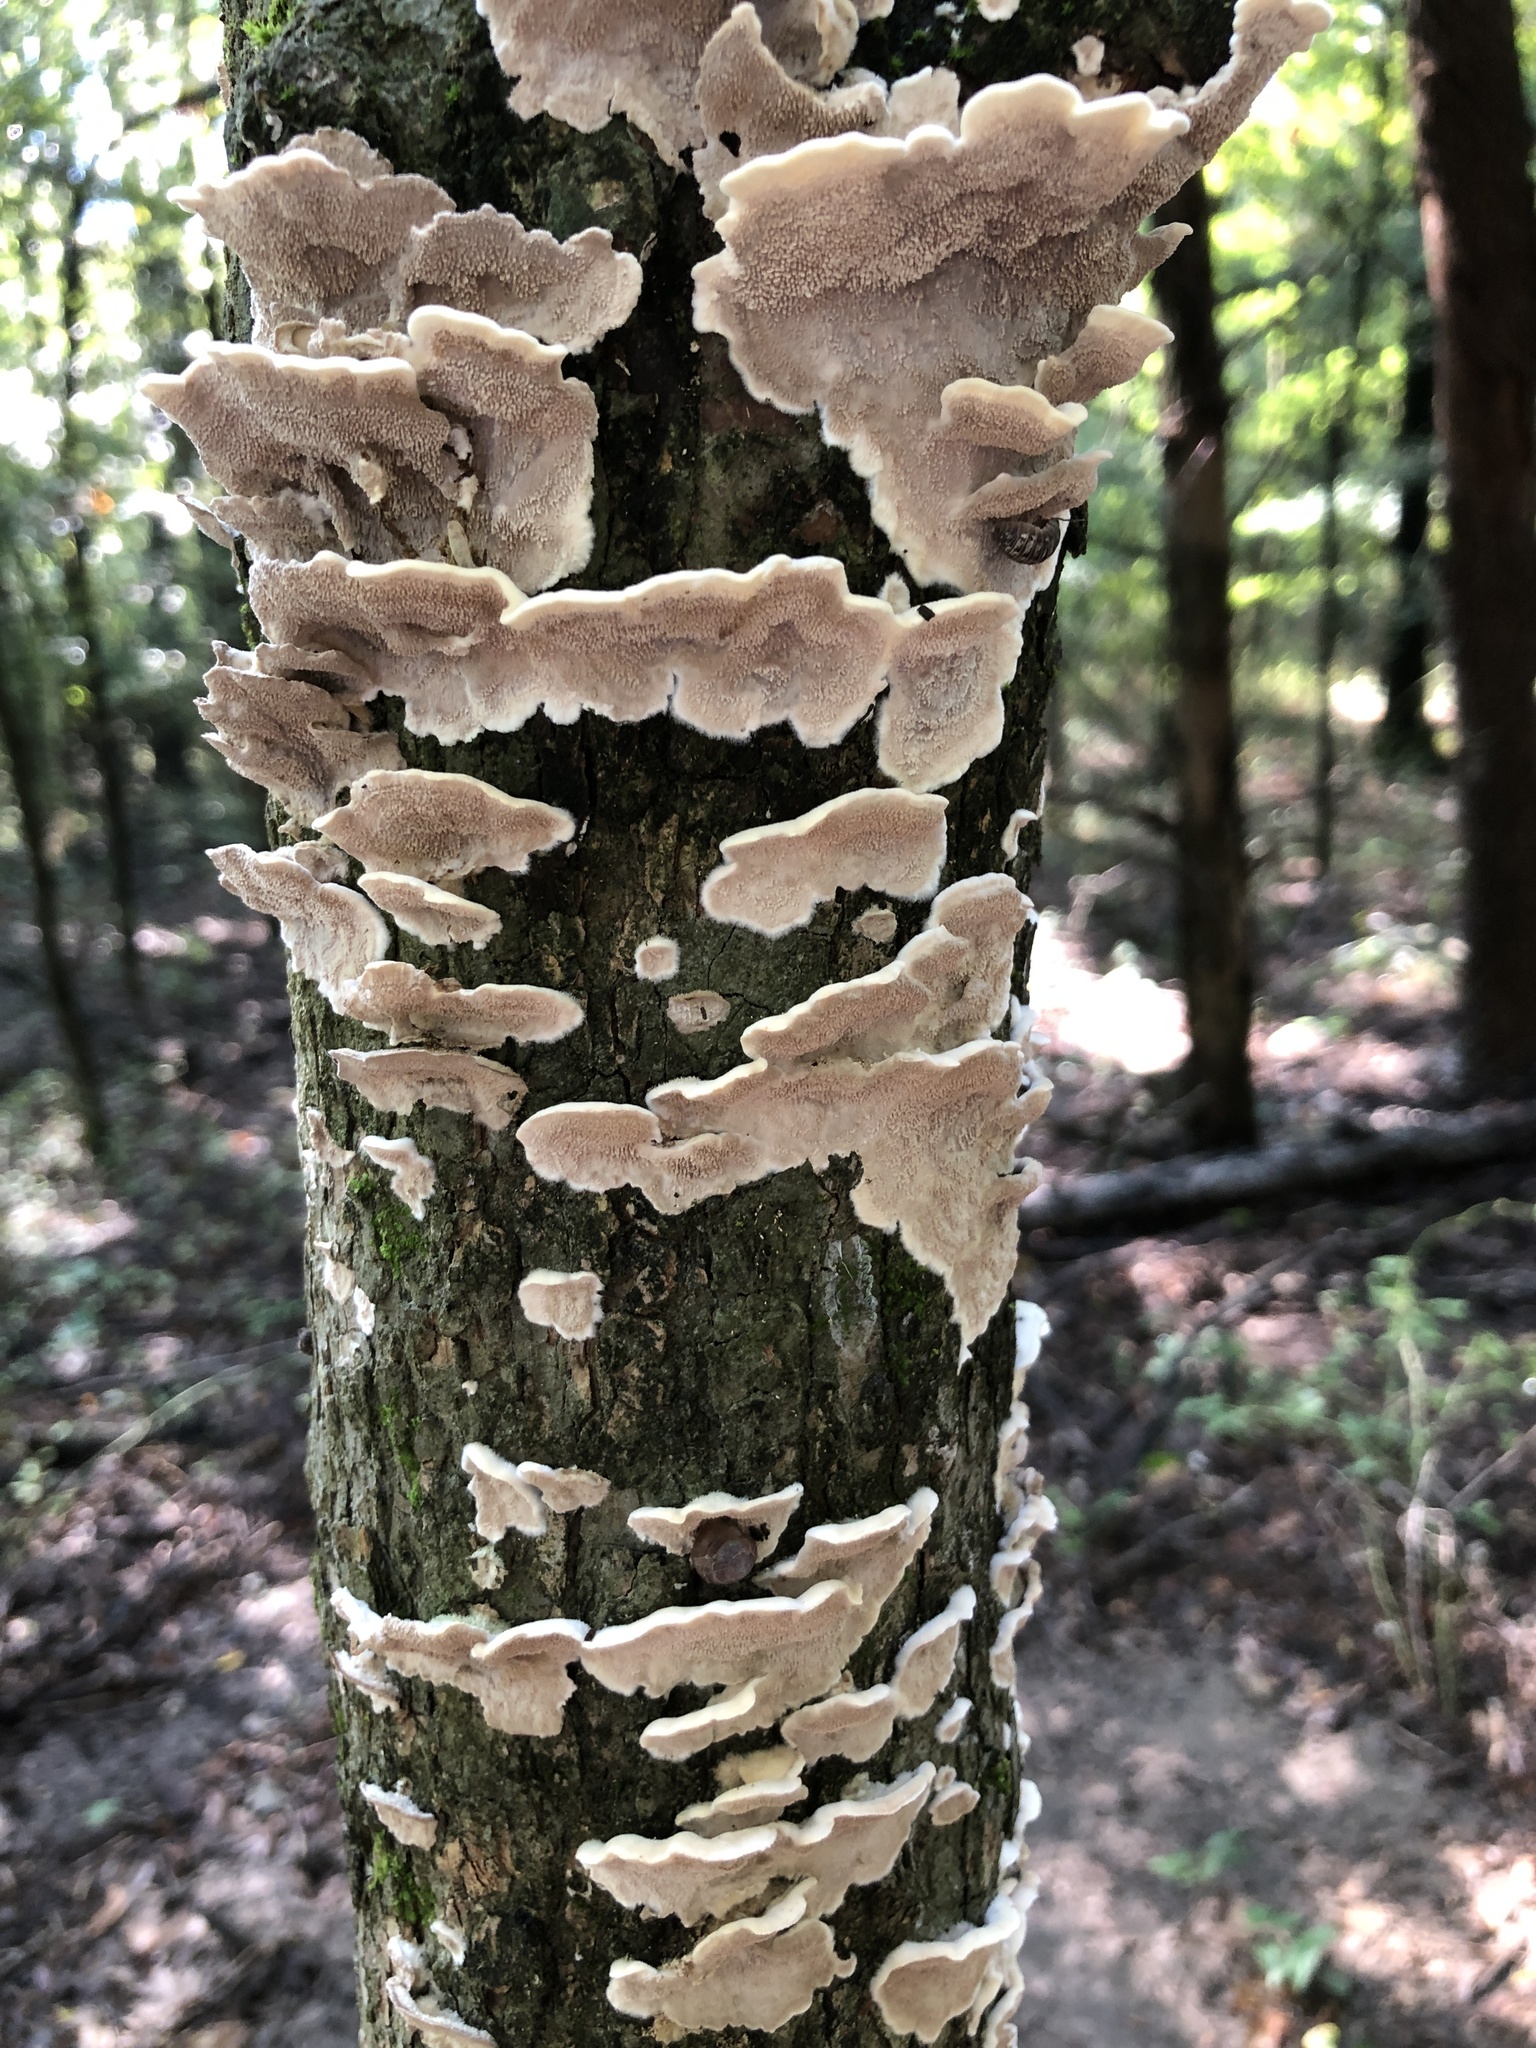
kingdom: Fungi
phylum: Basidiomycota
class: Agaricomycetes
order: Polyporales
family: Irpicaceae
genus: Irpex
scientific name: Irpex lacteus
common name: Milk-white toothed polypore
